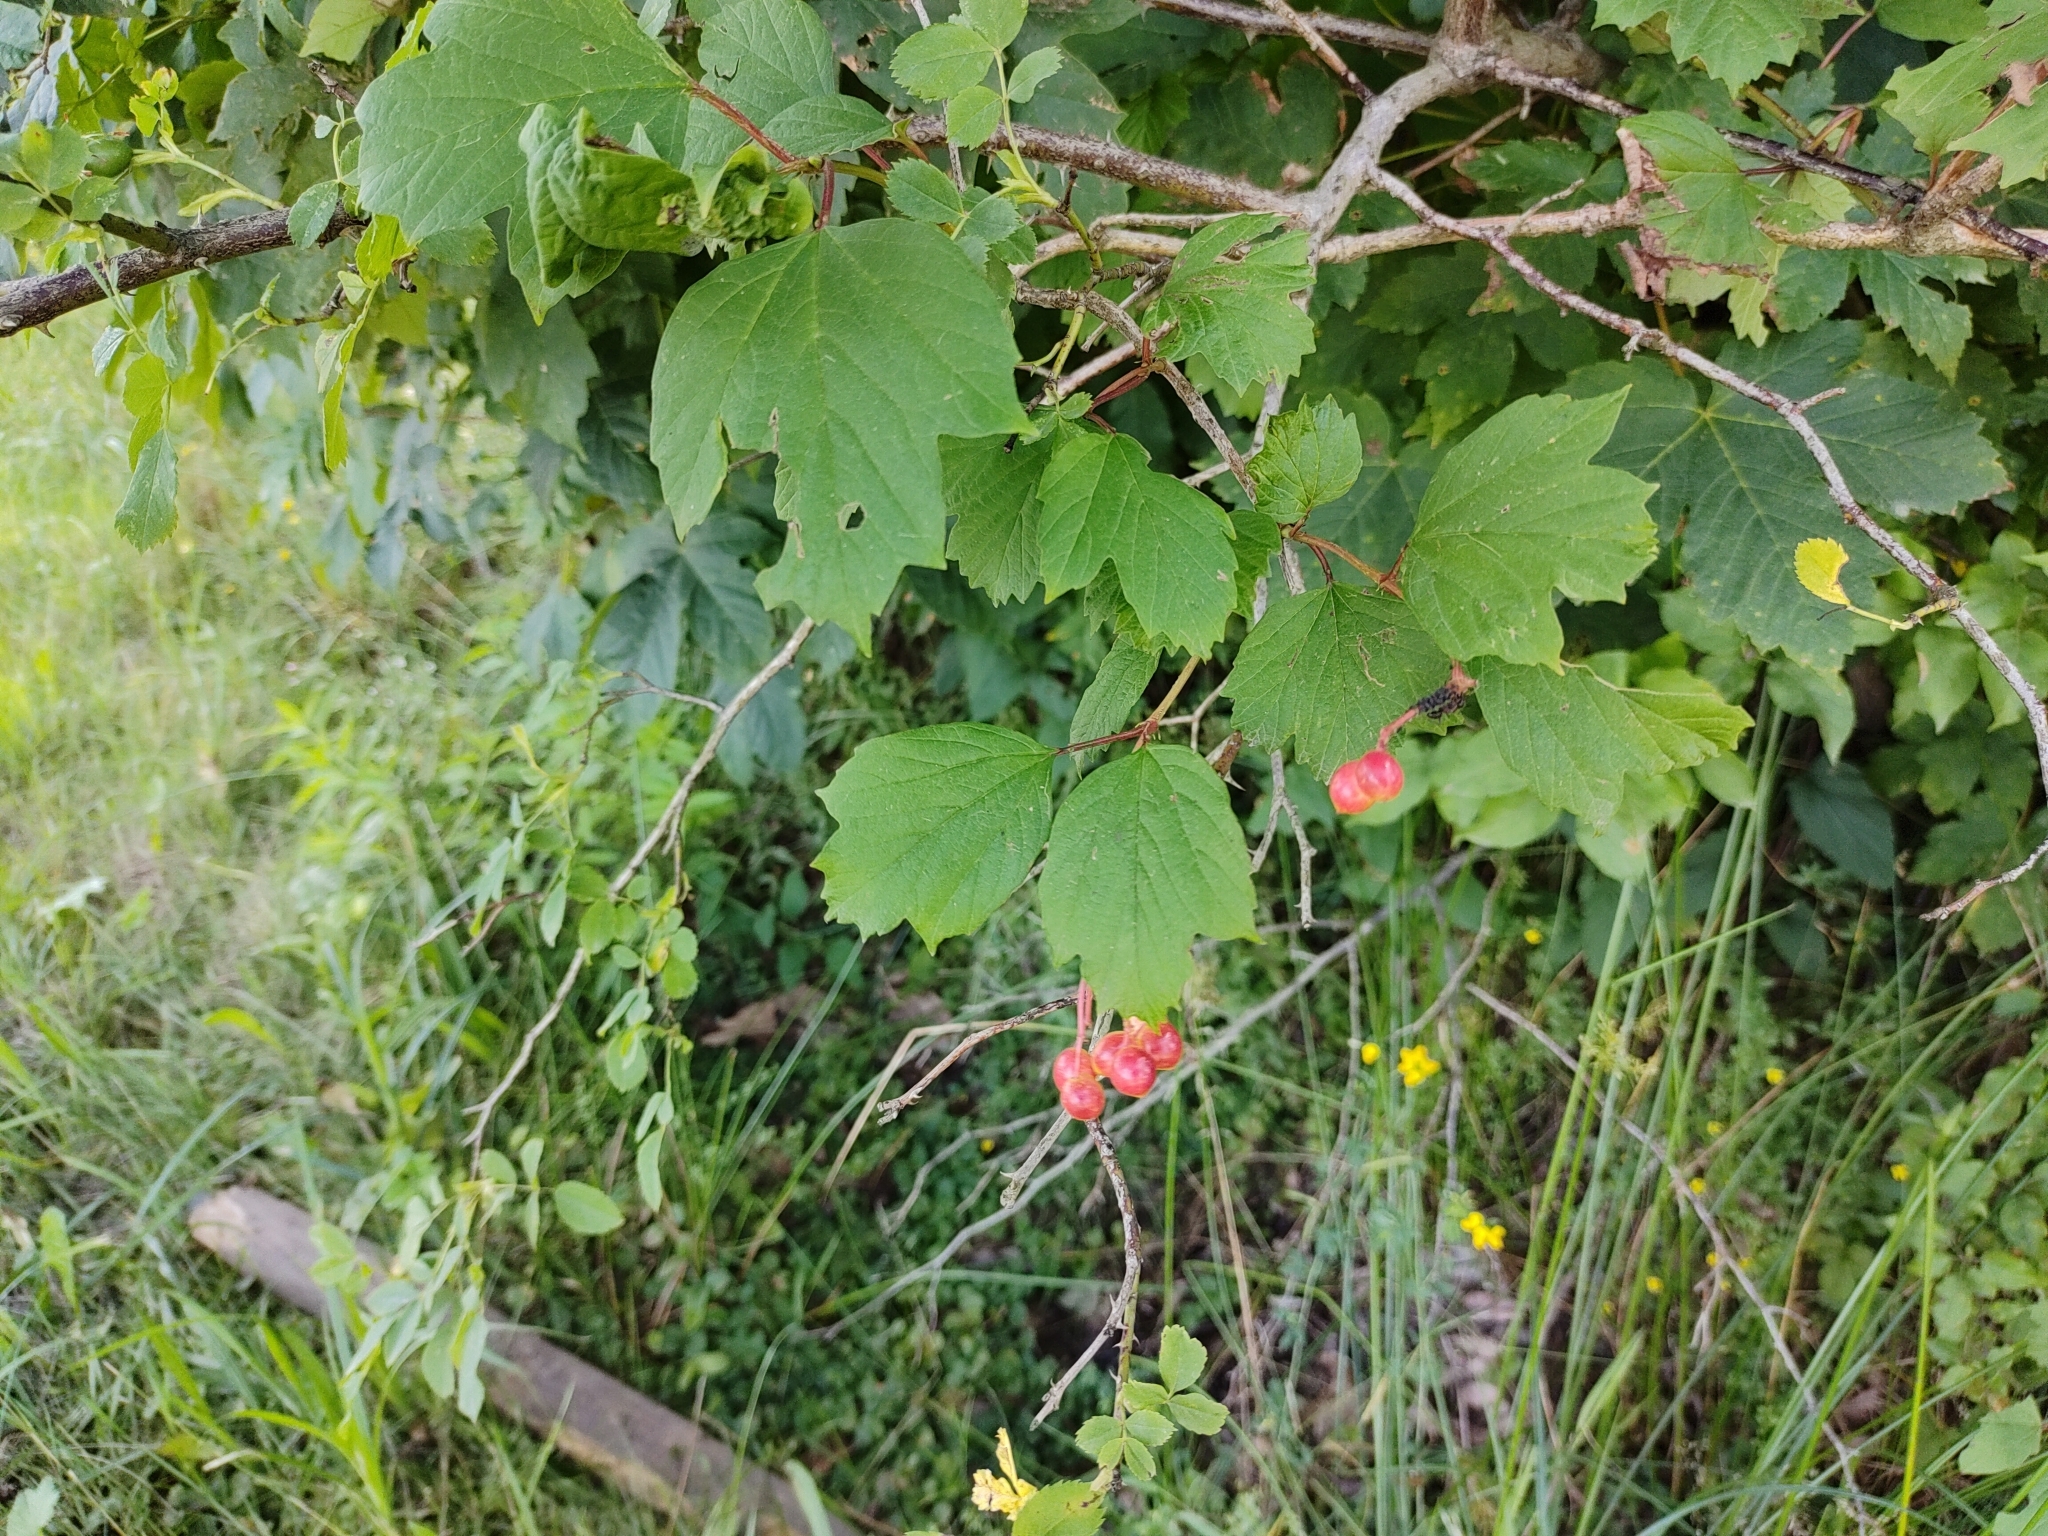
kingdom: Plantae
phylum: Tracheophyta
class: Magnoliopsida
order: Dipsacales
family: Viburnaceae
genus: Viburnum
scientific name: Viburnum opulus
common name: Guelder-rose
